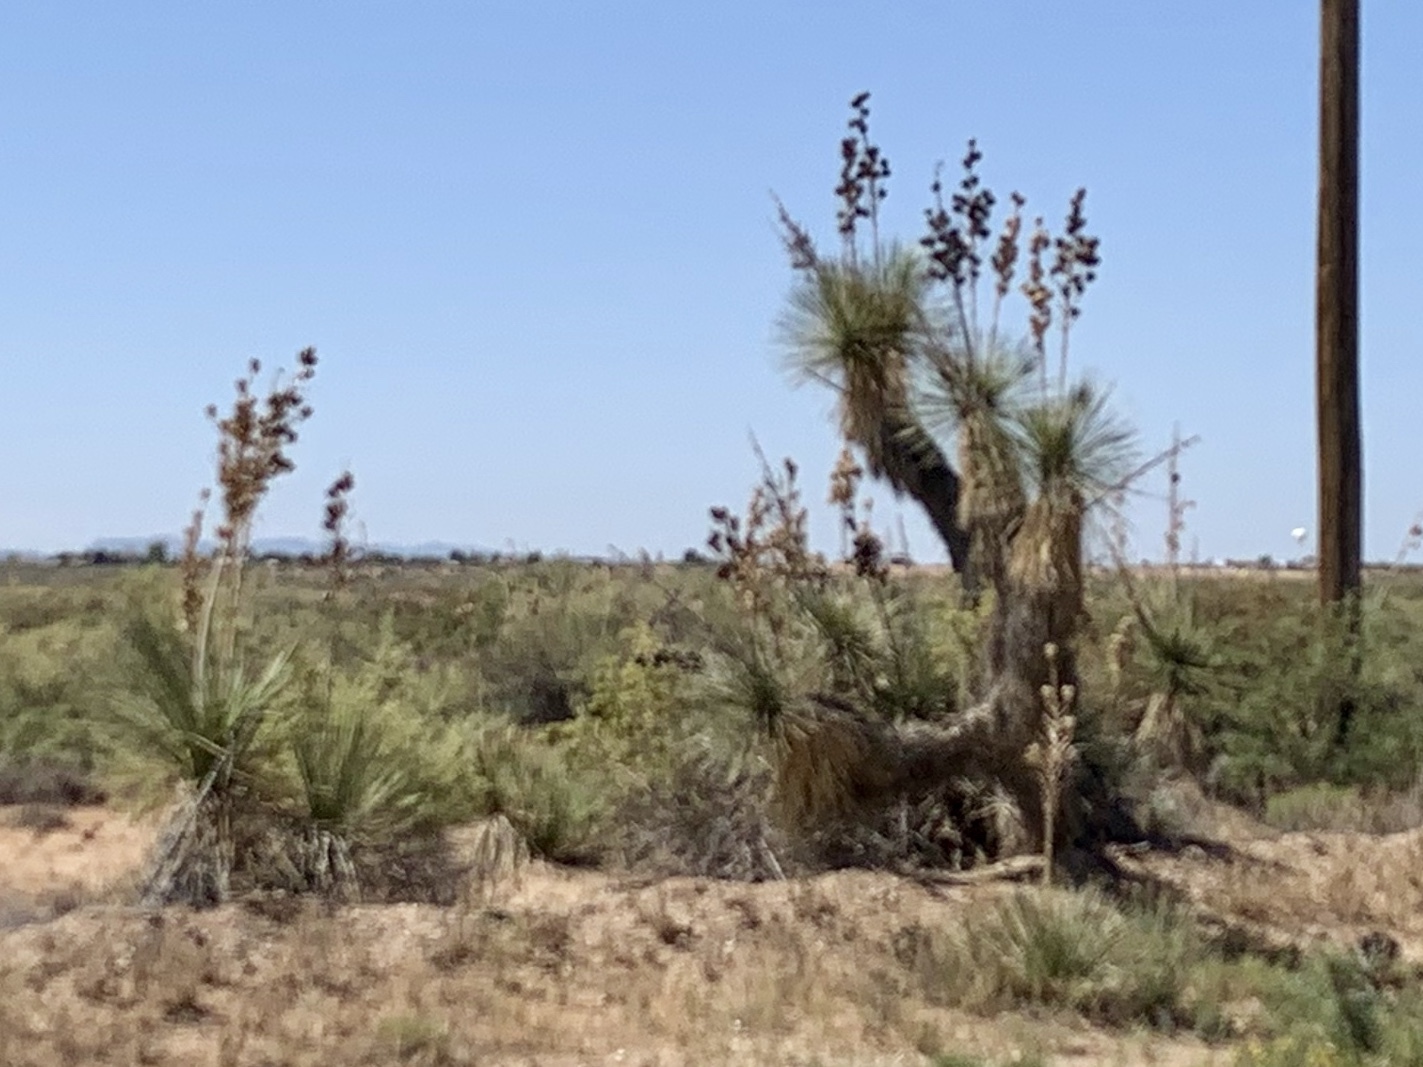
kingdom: Plantae
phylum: Tracheophyta
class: Liliopsida
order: Asparagales
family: Asparagaceae
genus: Yucca
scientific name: Yucca elata
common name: Palmella
